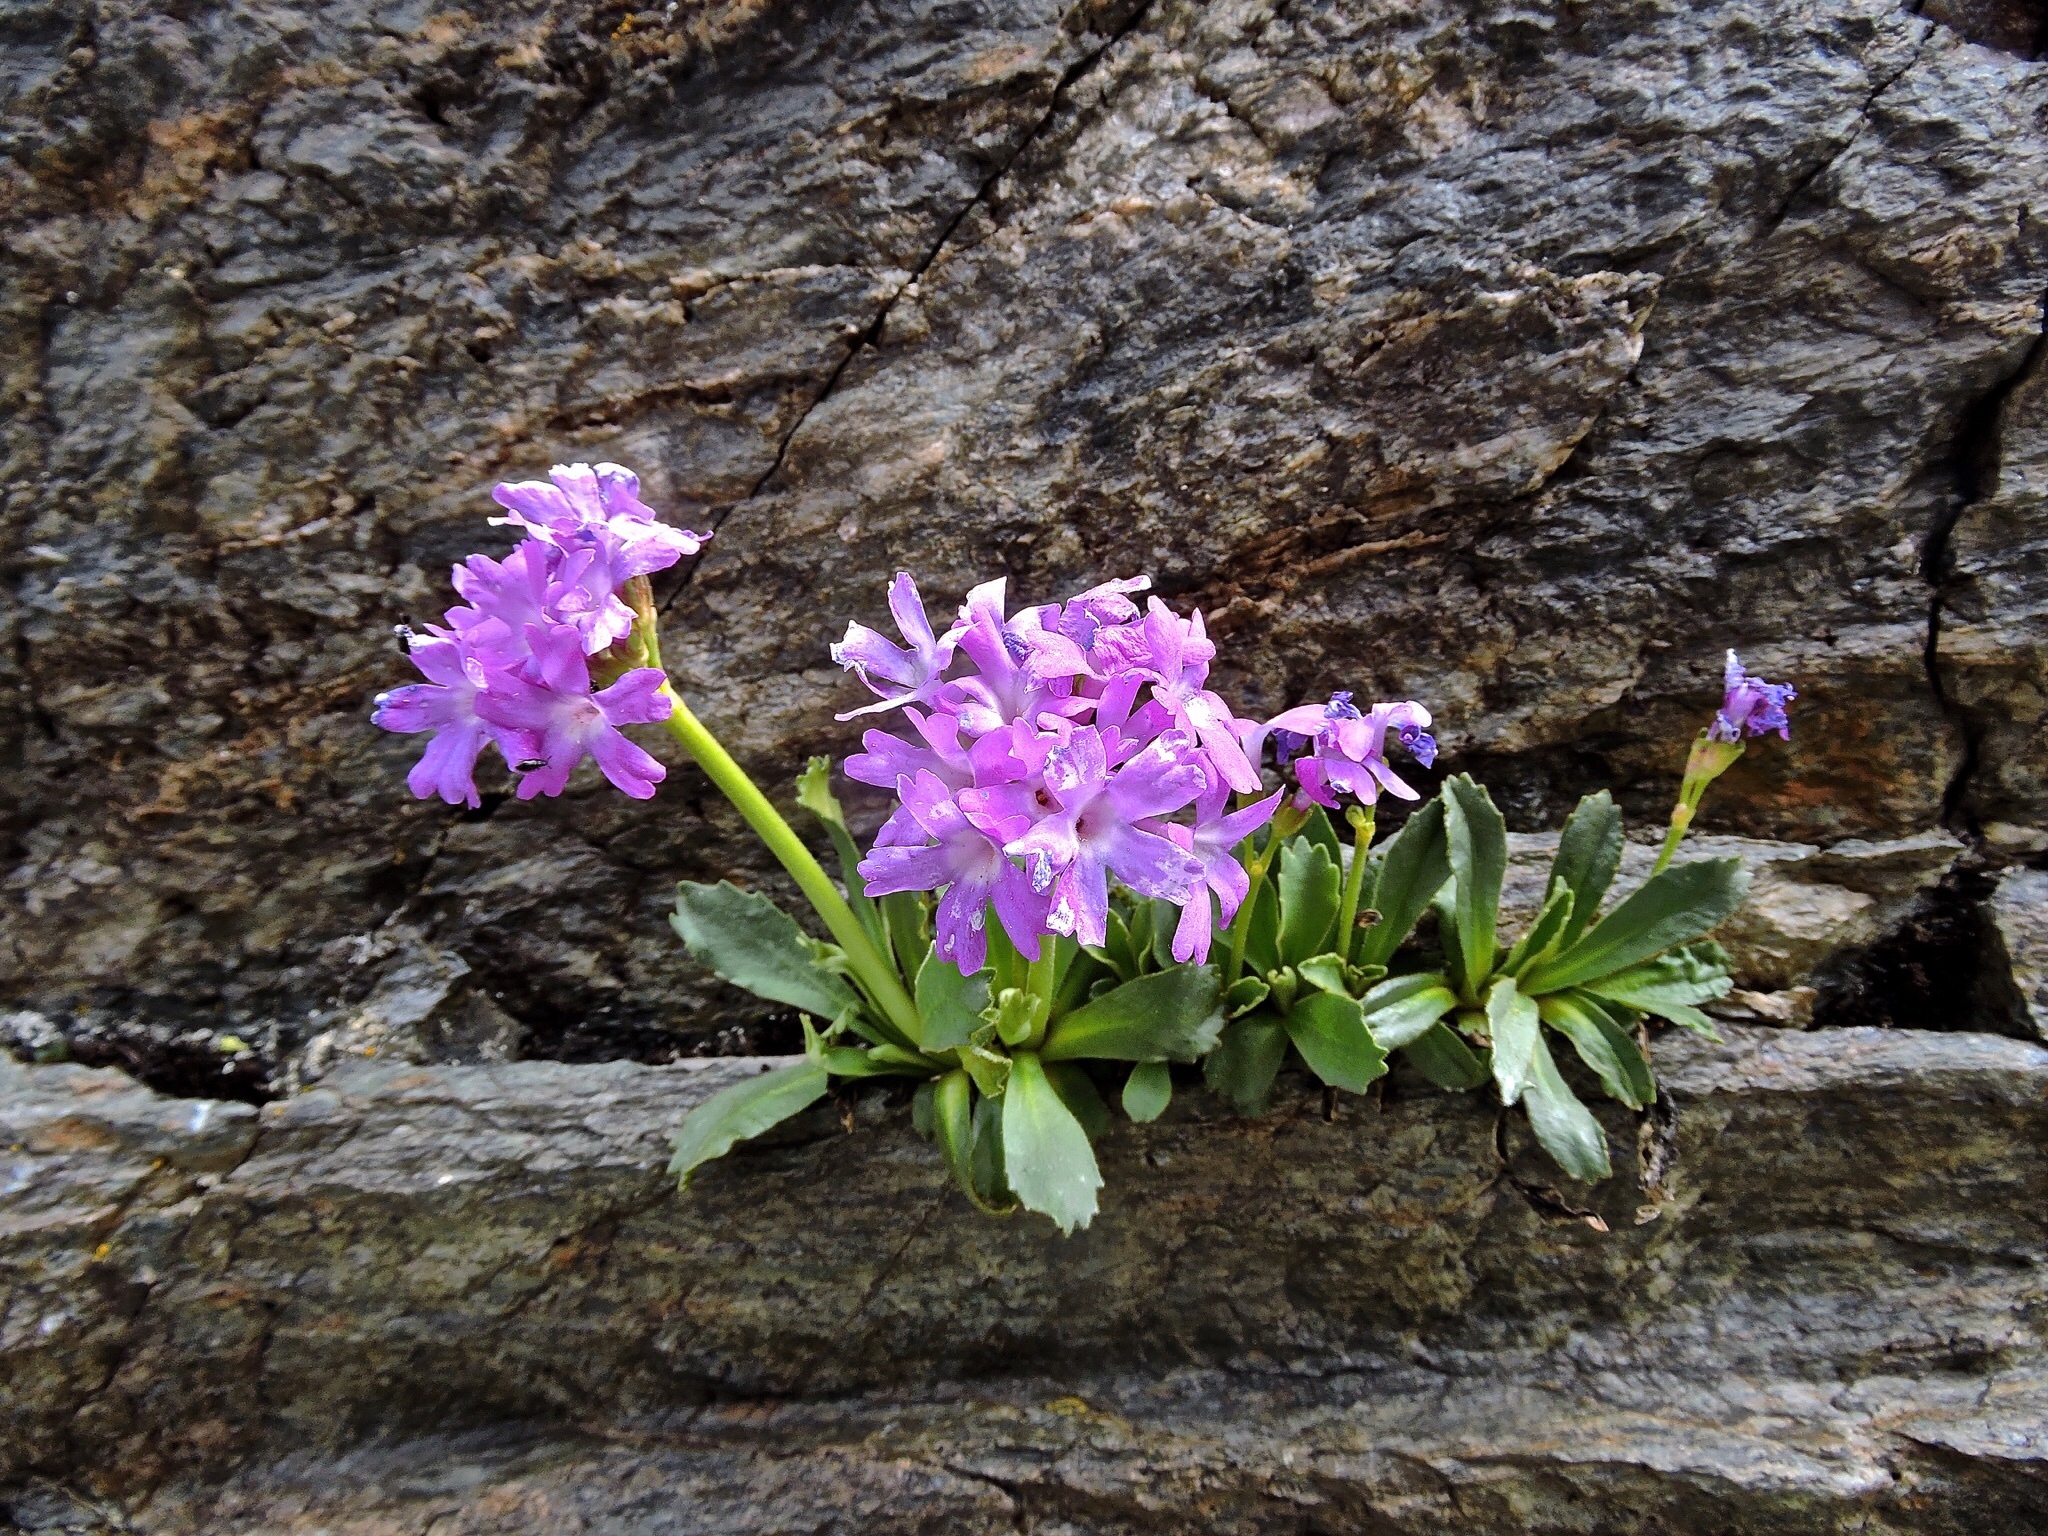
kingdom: Plantae
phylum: Tracheophyta
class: Magnoliopsida
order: Ericales
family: Primulaceae
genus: Primula
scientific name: Primula daonensis
